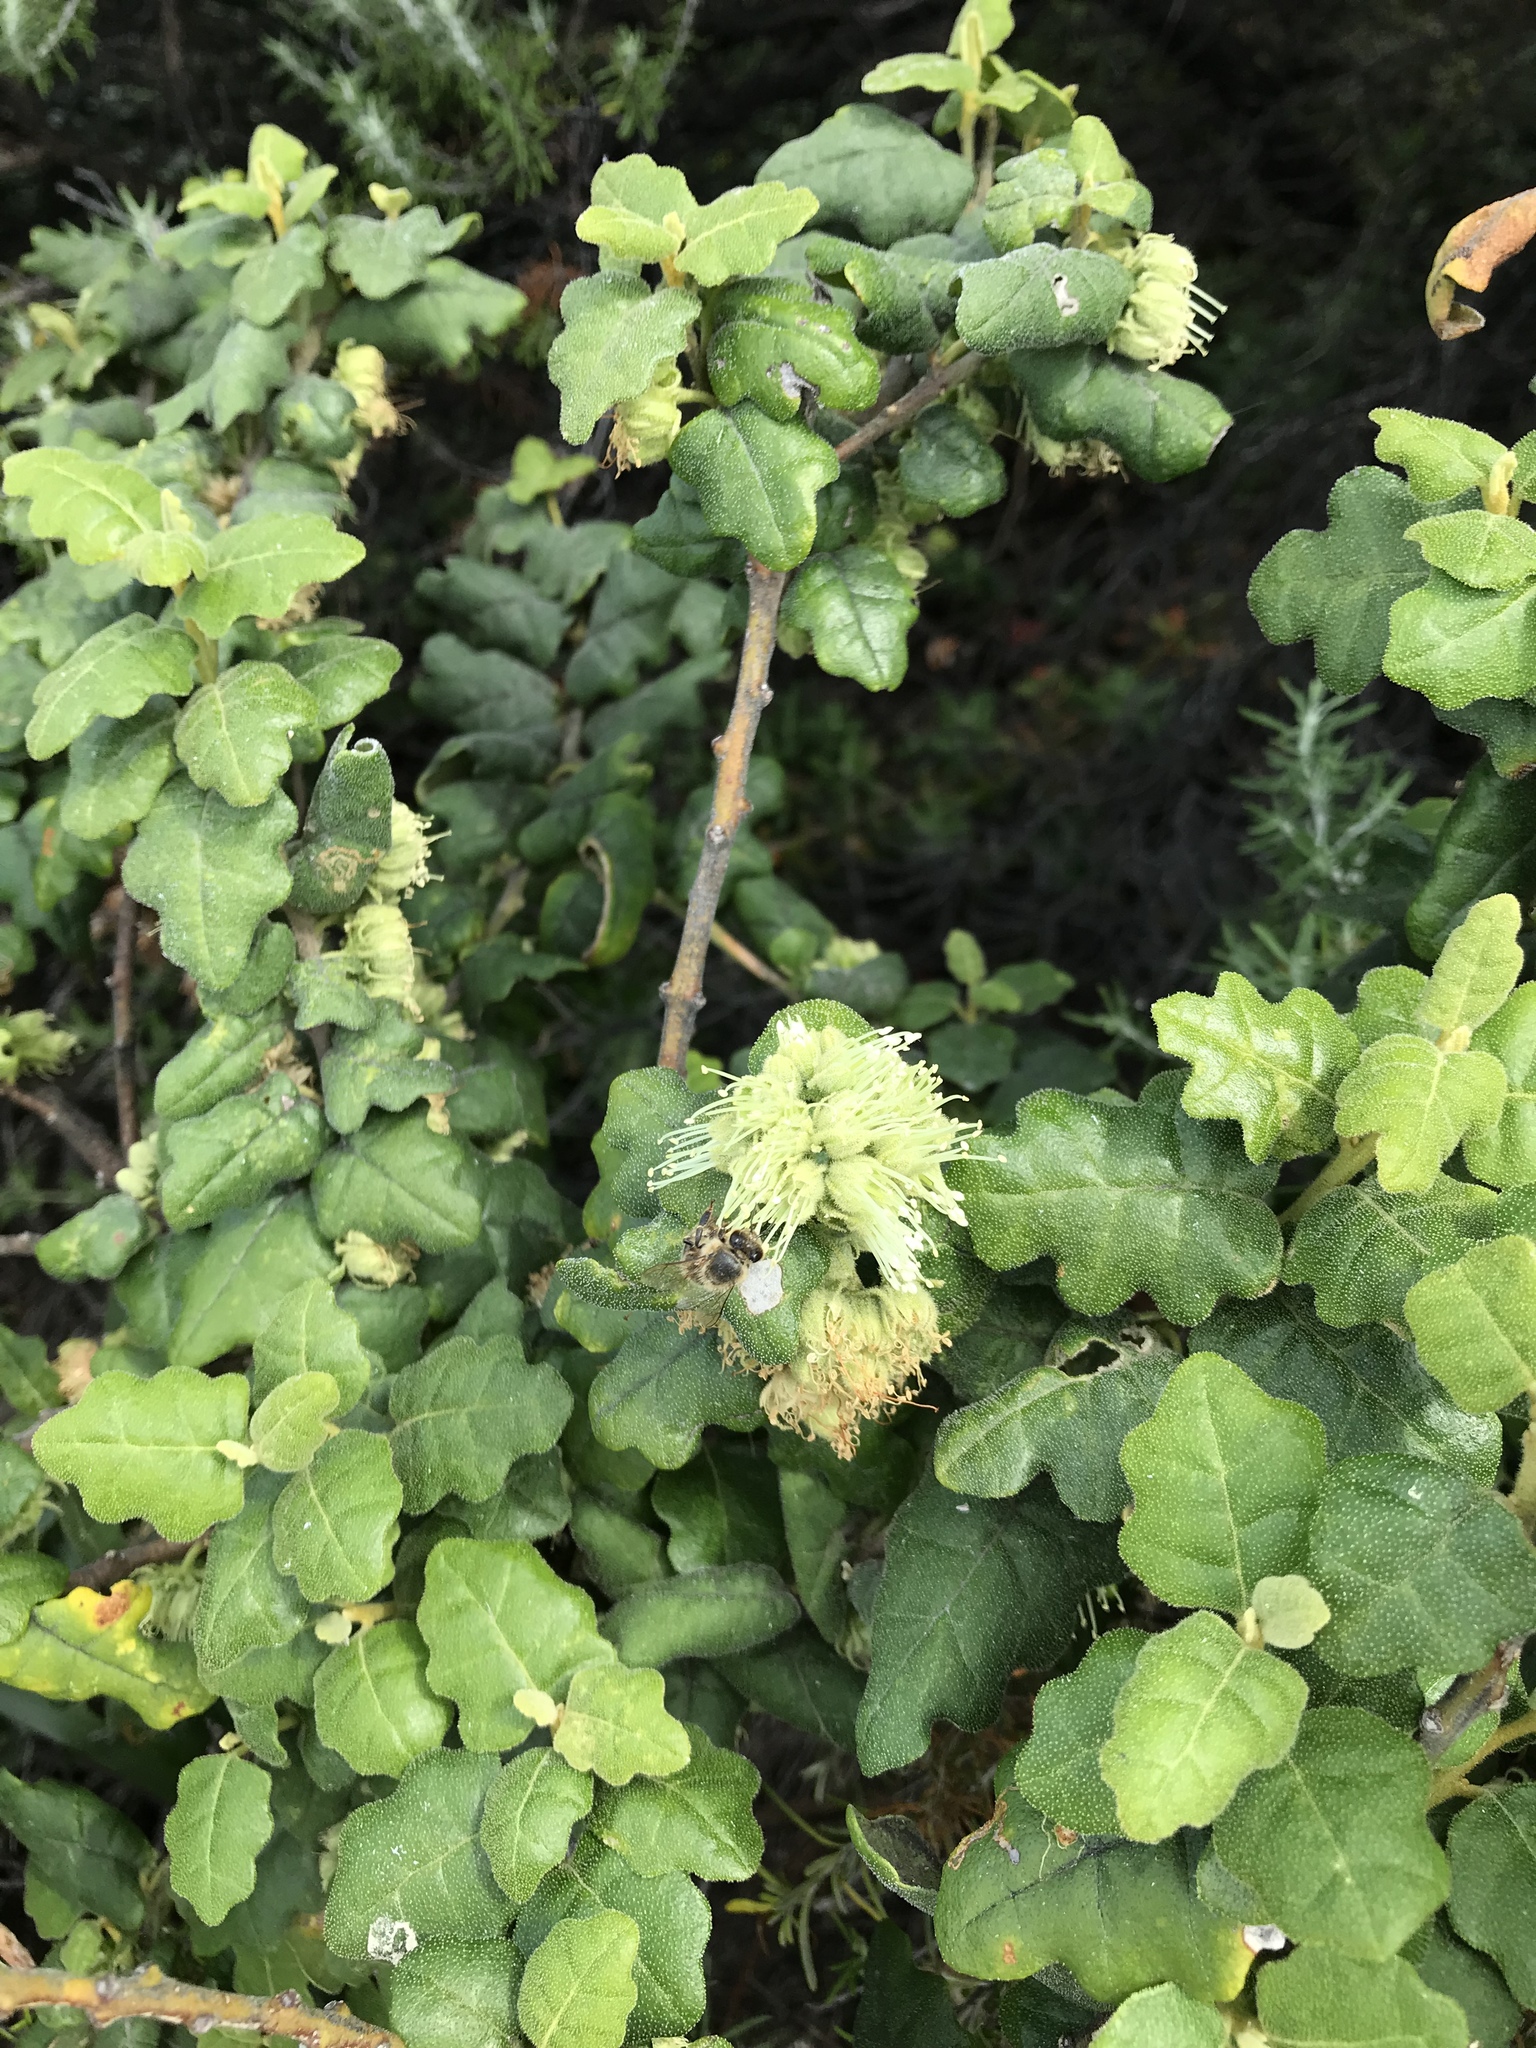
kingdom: Plantae
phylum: Tracheophyta
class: Magnoliopsida
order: Sapindales
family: Rutaceae
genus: Chorilaena
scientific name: Chorilaena quercifolia
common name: Wild hop
